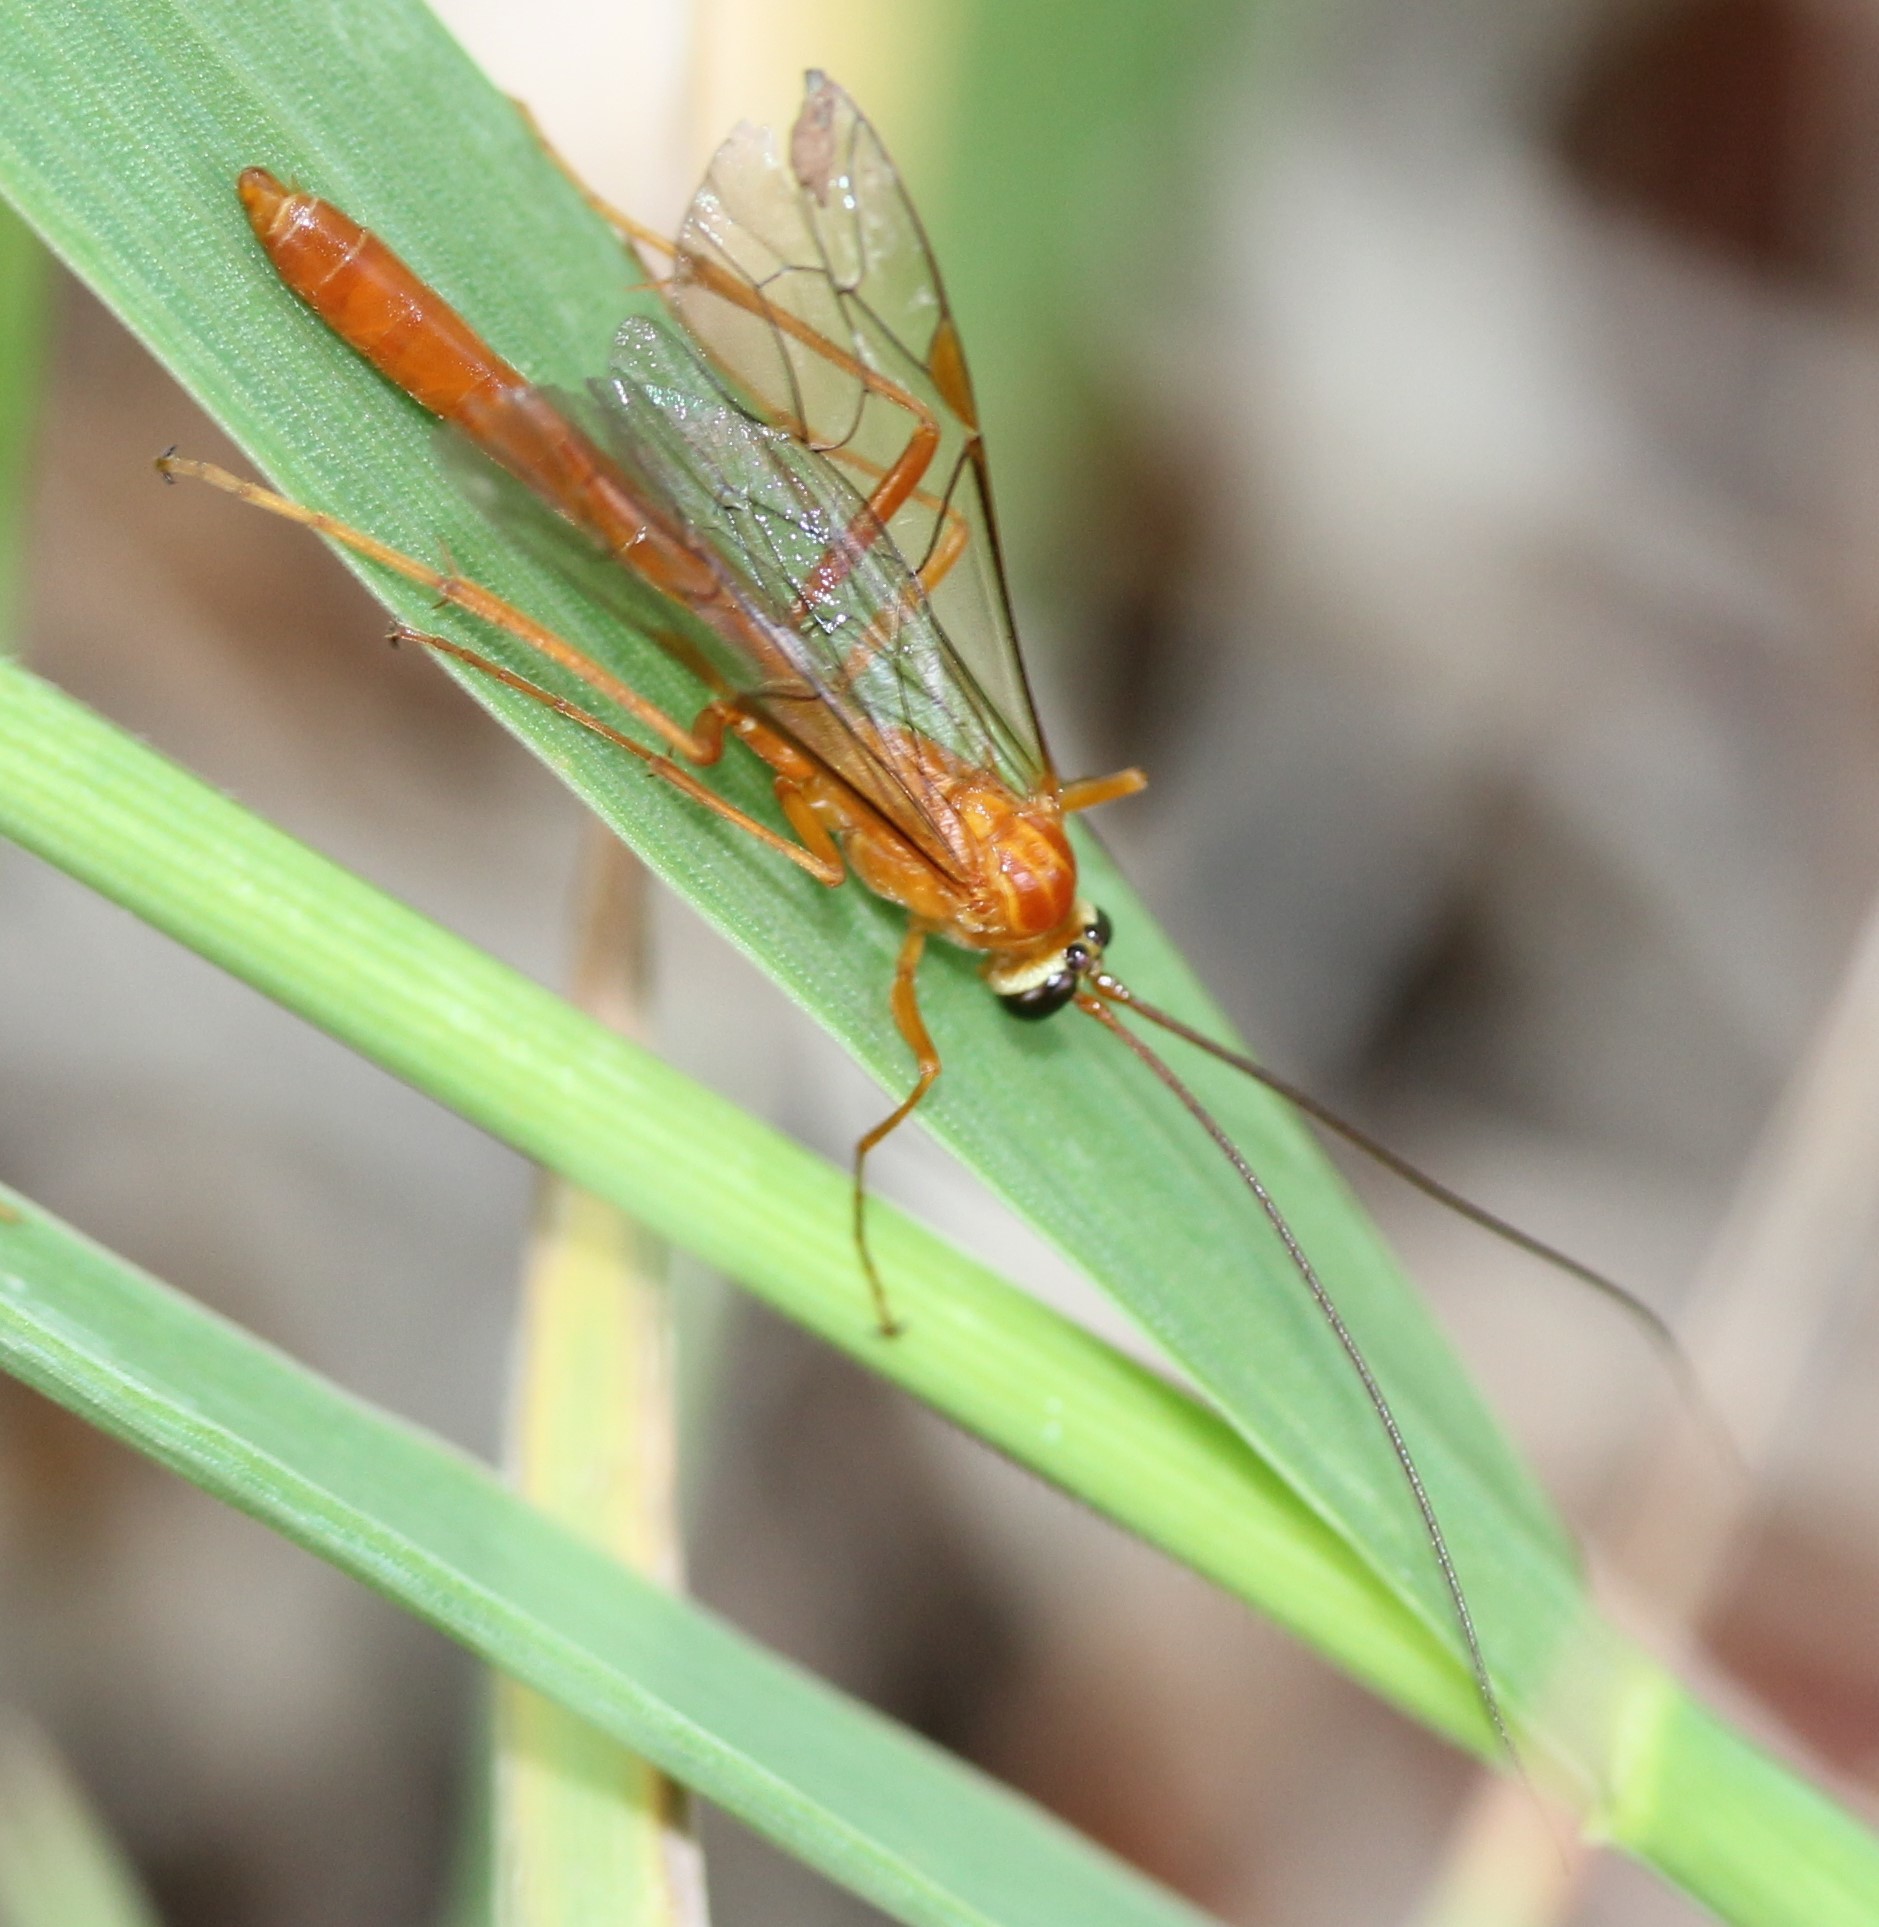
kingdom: Animalia
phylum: Arthropoda
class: Insecta
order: Hymenoptera
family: Ichneumonidae
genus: Netelia
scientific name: Netelia
